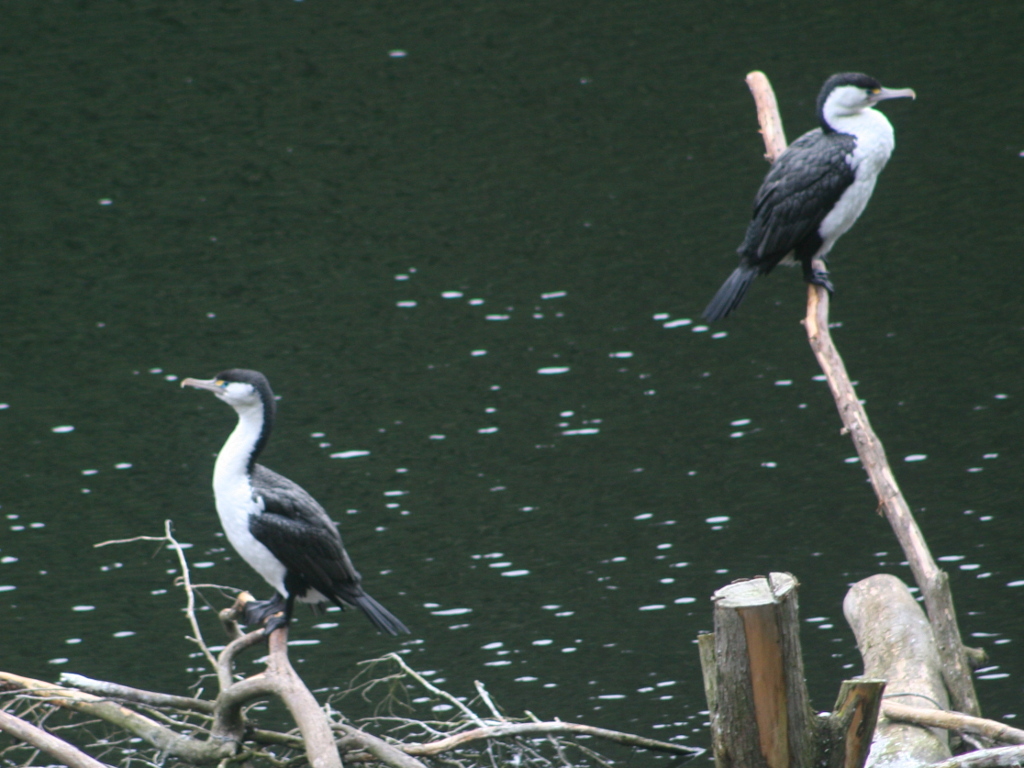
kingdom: Animalia
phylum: Chordata
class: Aves
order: Suliformes
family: Phalacrocoracidae
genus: Phalacrocorax
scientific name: Phalacrocorax varius
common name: Pied cormorant
